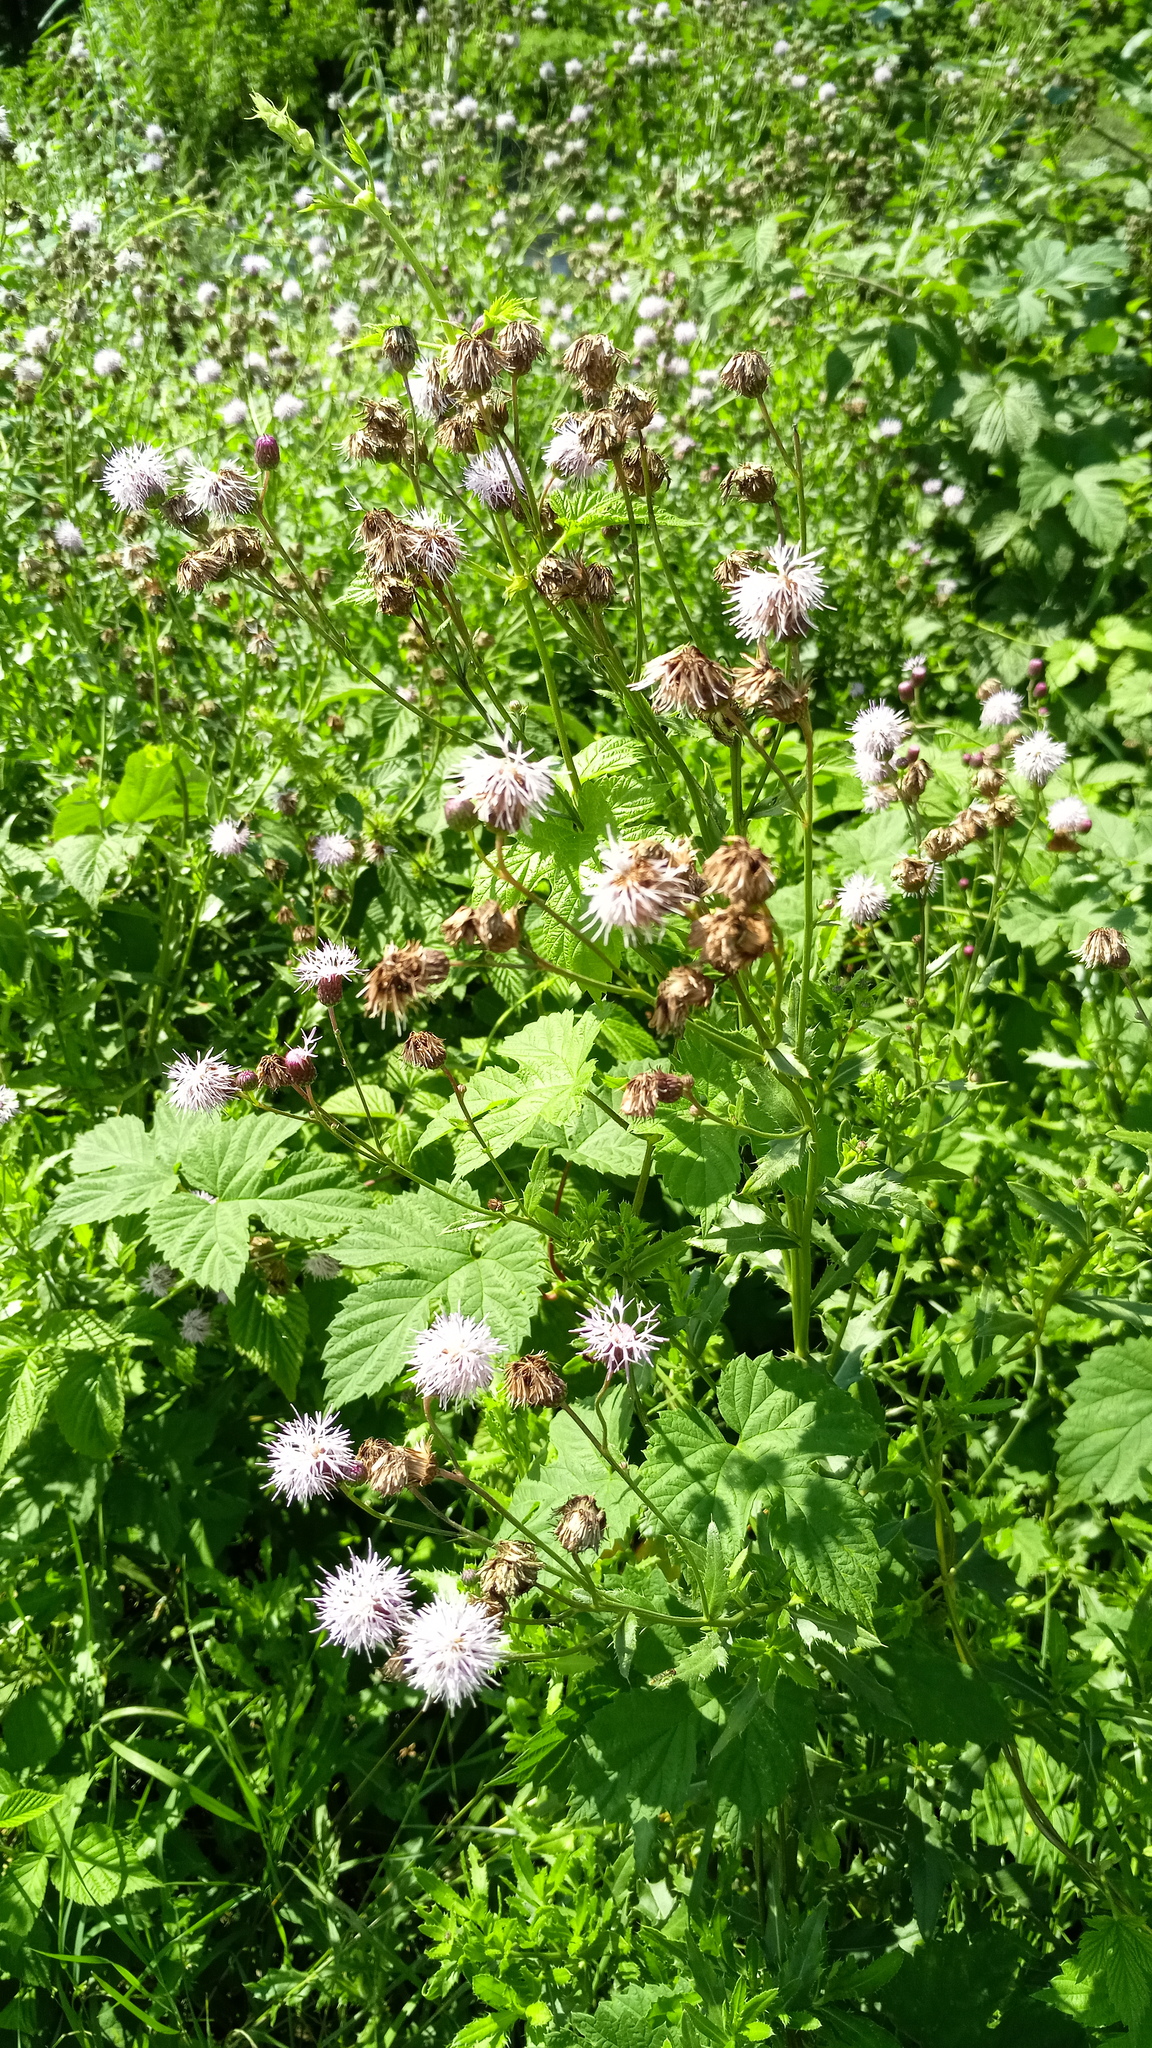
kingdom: Plantae
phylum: Tracheophyta
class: Magnoliopsida
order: Asterales
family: Asteraceae
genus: Cirsium
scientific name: Cirsium arvense
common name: Creeping thistle
